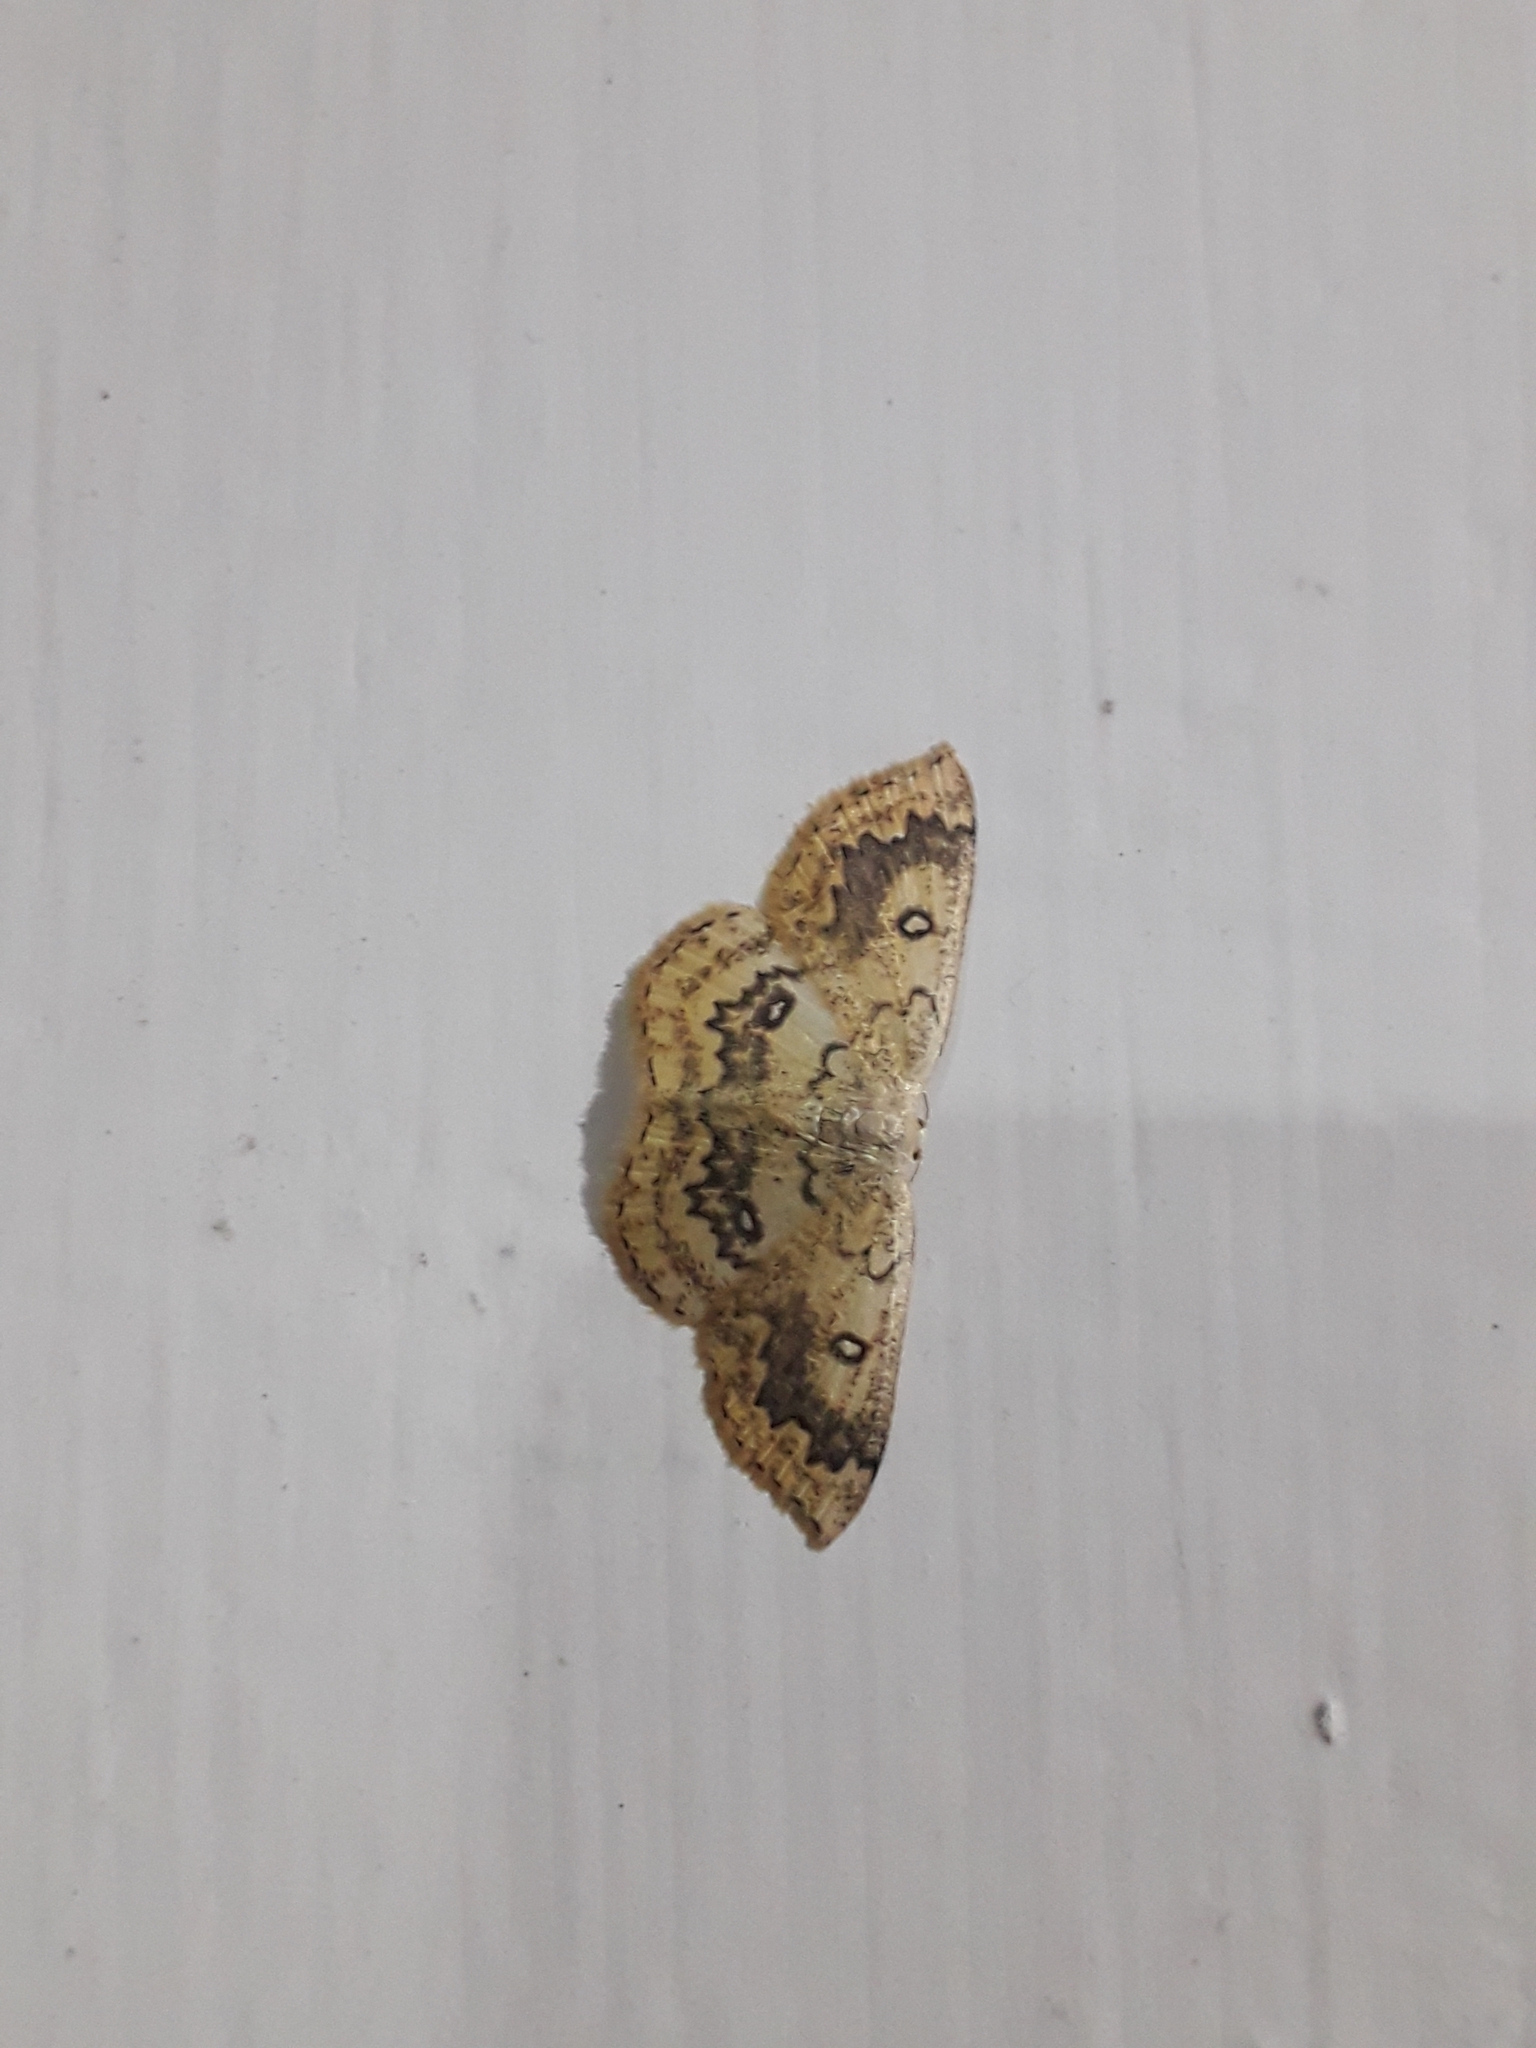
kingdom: Animalia
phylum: Arthropoda
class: Insecta
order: Lepidoptera
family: Geometridae
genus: Cyclophora
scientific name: Cyclophora annularia
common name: Mocha
